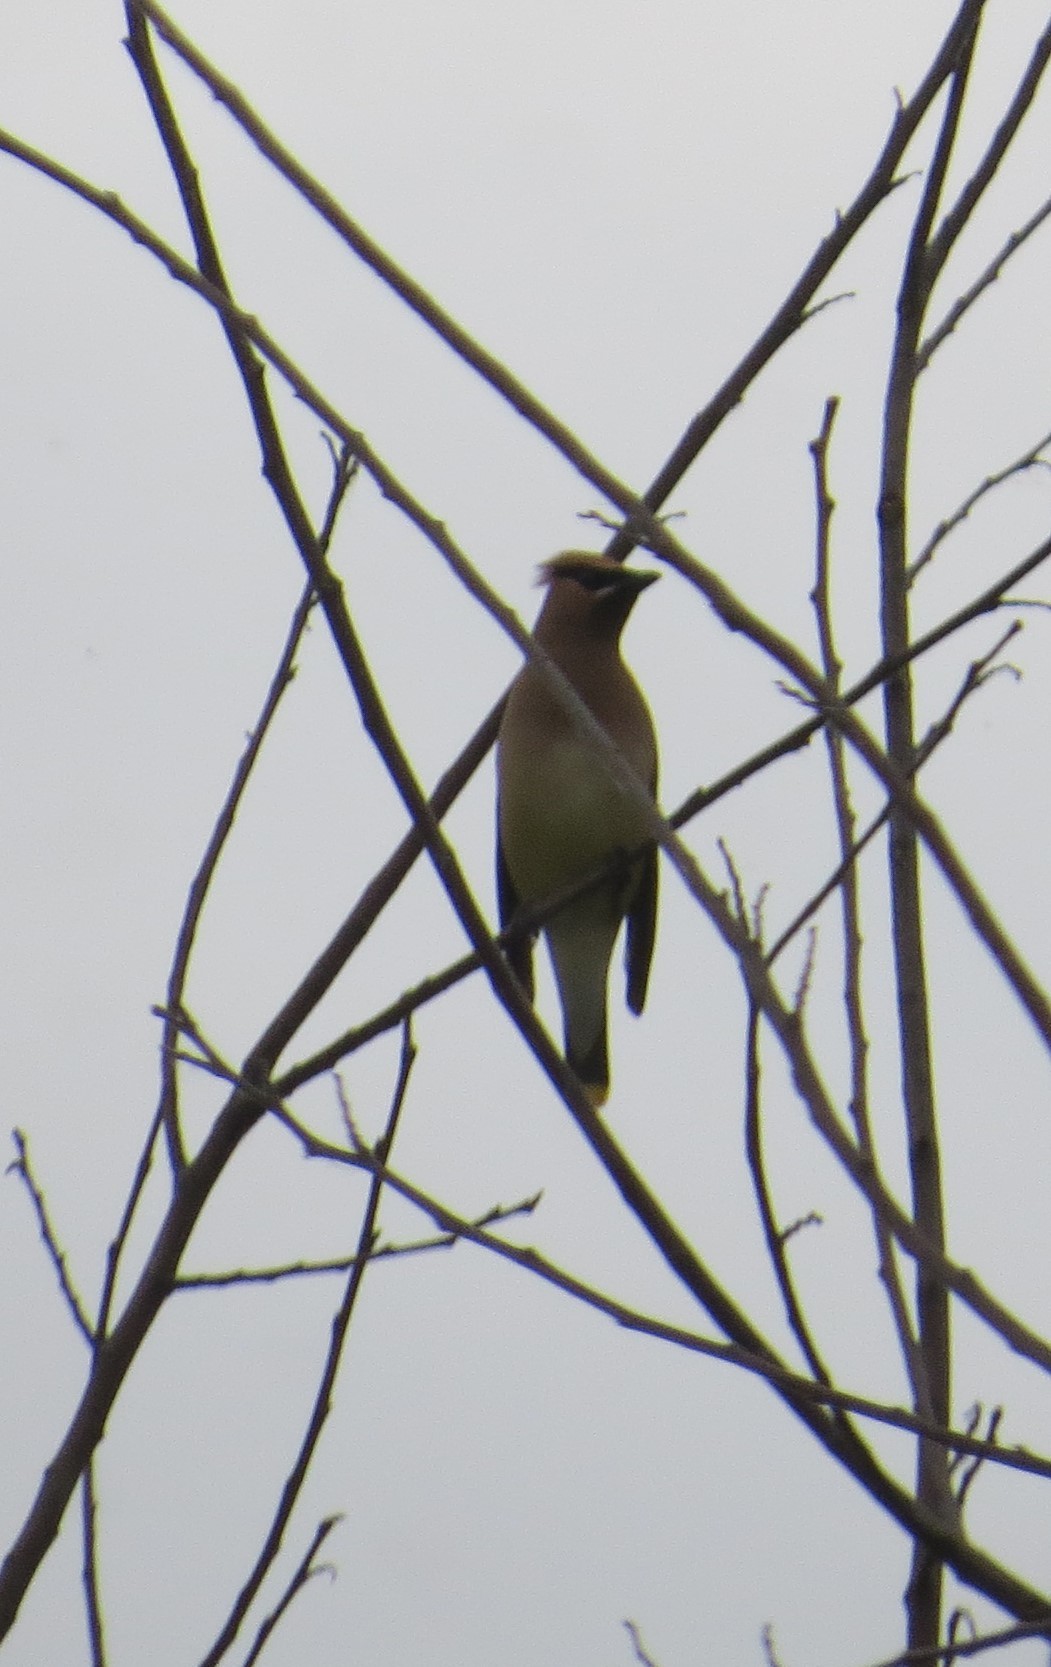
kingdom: Animalia
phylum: Chordata
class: Aves
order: Passeriformes
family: Bombycillidae
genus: Bombycilla
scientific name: Bombycilla cedrorum
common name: Cedar waxwing
